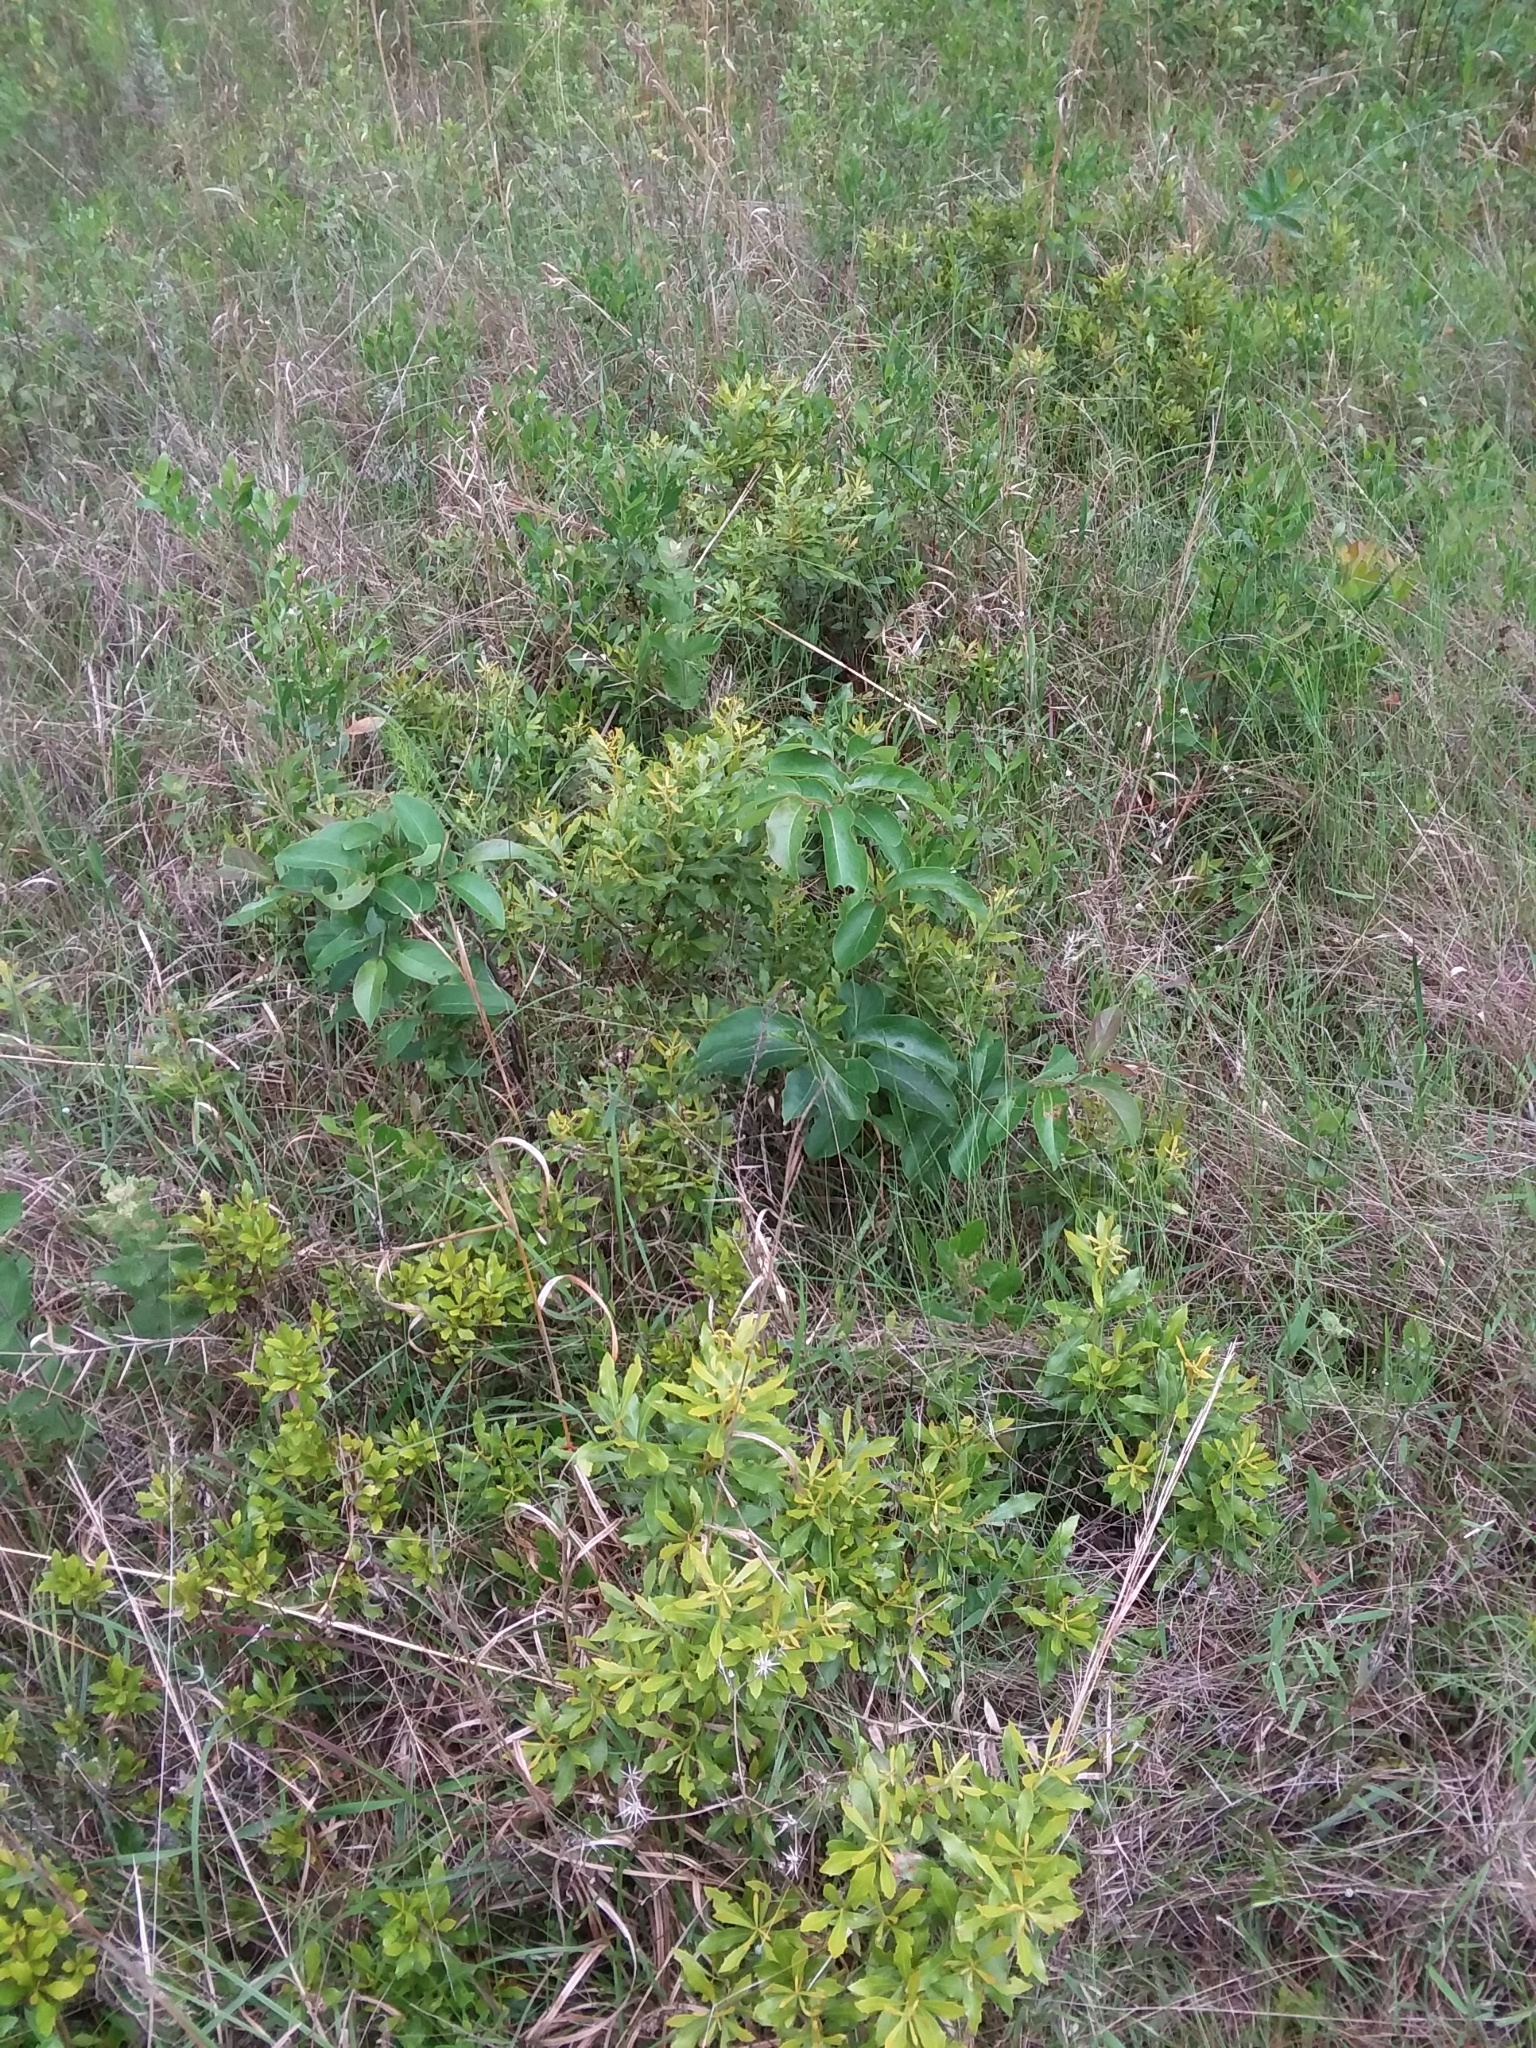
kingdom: Plantae
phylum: Tracheophyta
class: Magnoliopsida
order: Fagales
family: Myricaceae
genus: Morella
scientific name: Morella cerifera
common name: Wax myrtle
